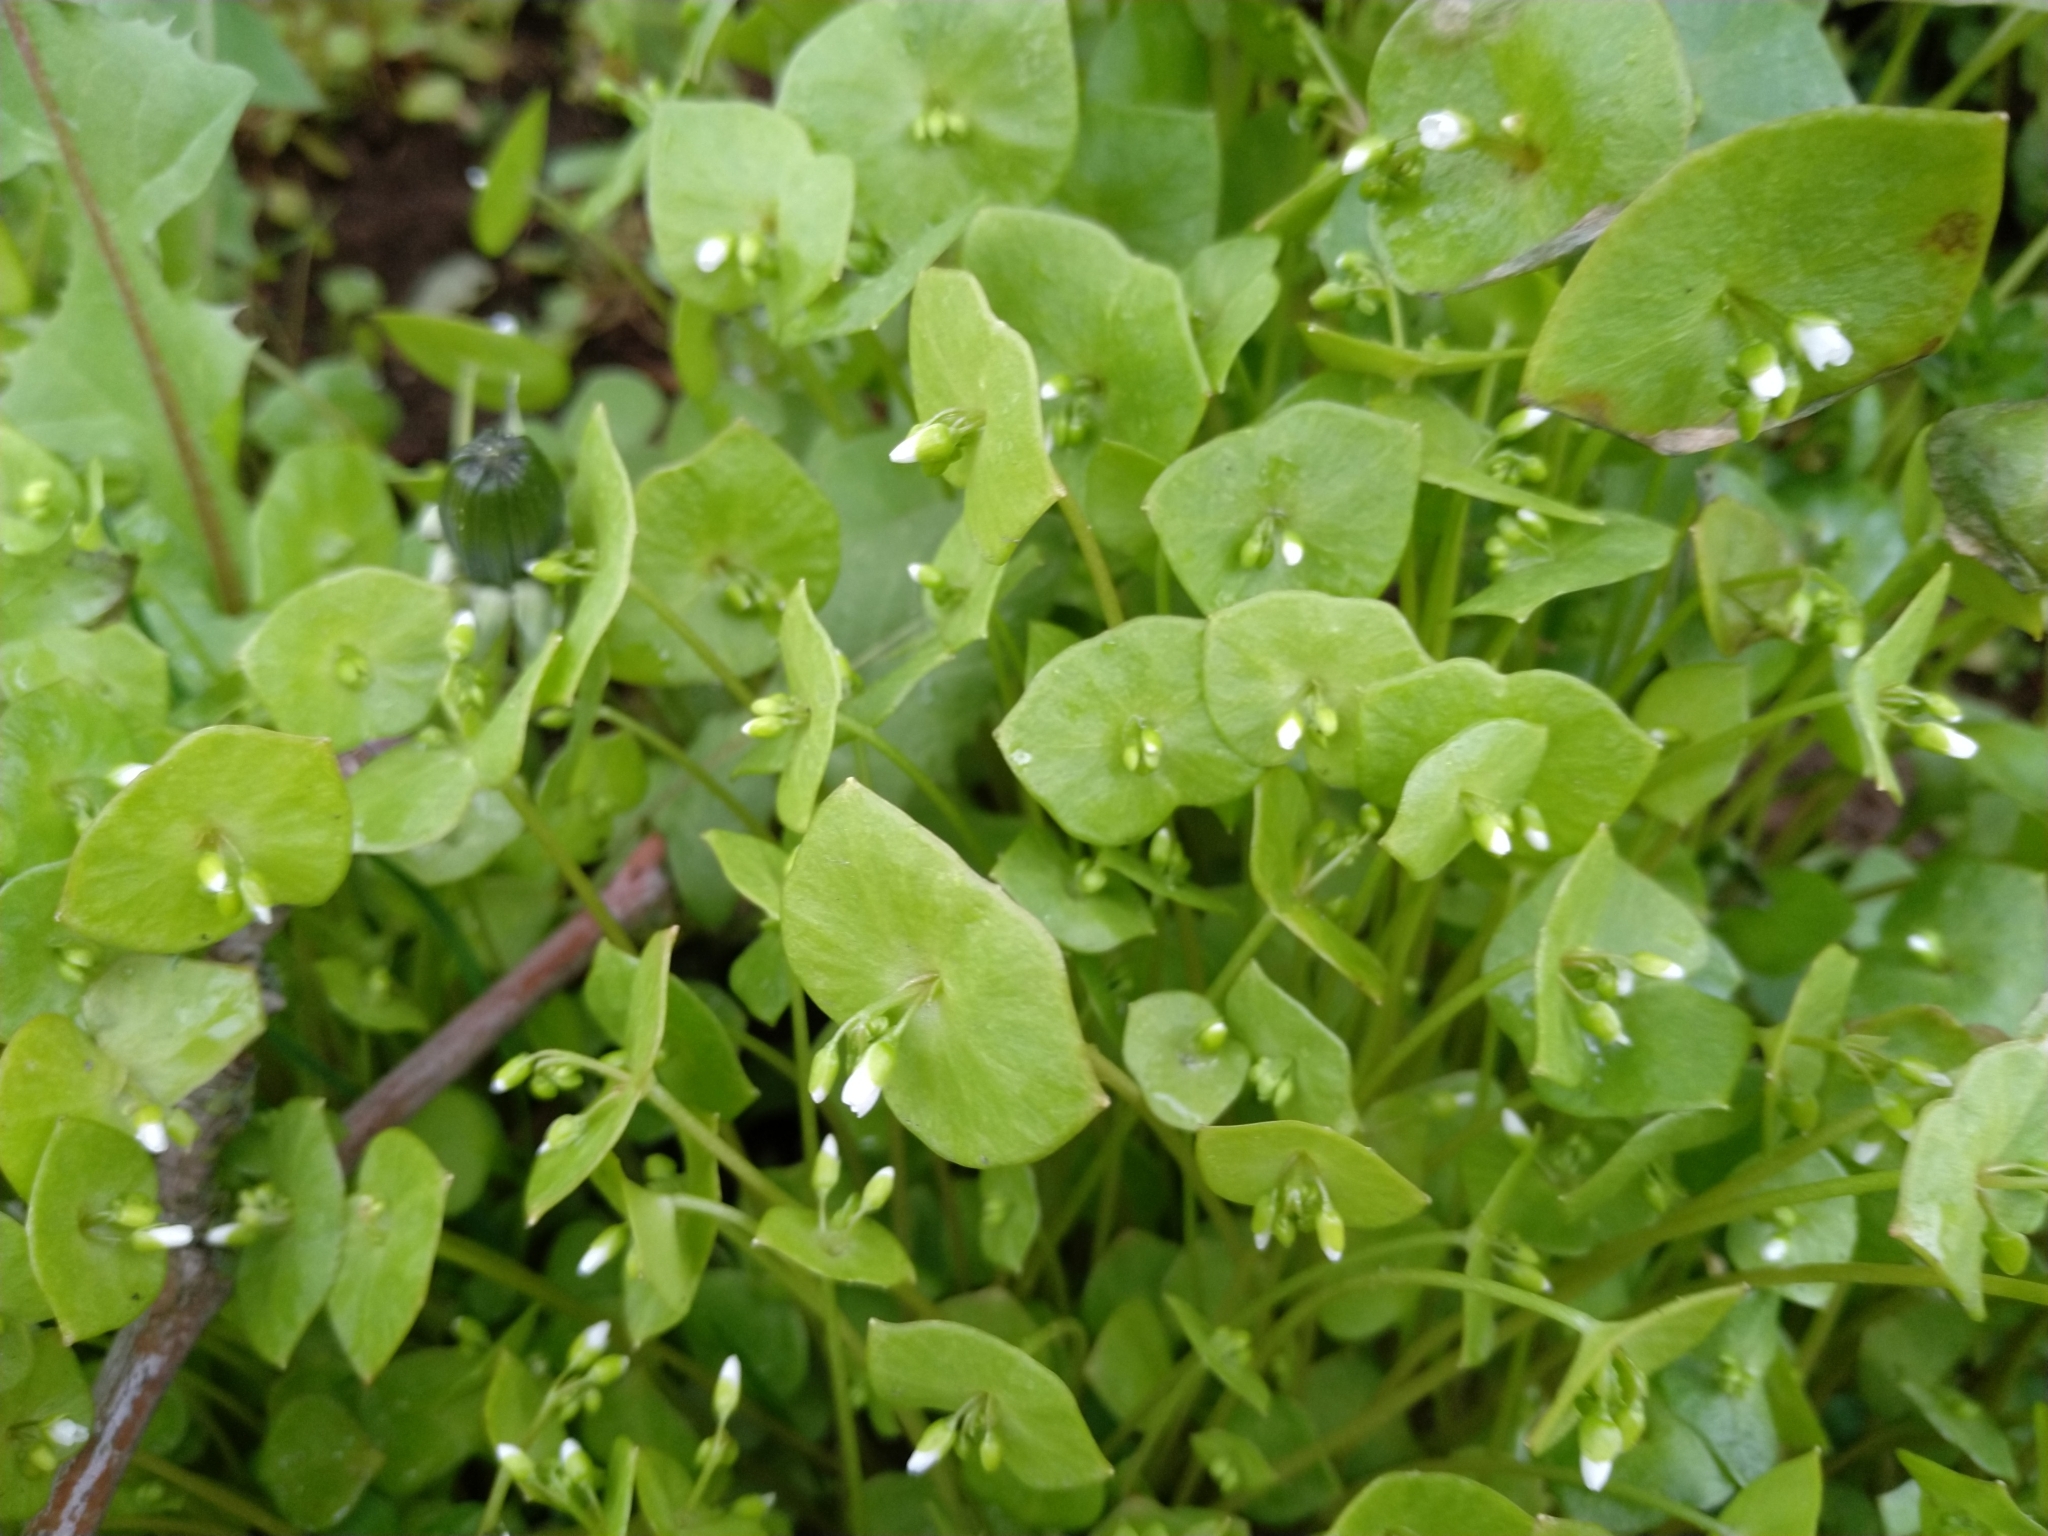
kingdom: Plantae
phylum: Tracheophyta
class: Magnoliopsida
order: Caryophyllales
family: Montiaceae
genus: Claytonia
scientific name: Claytonia perfoliata
